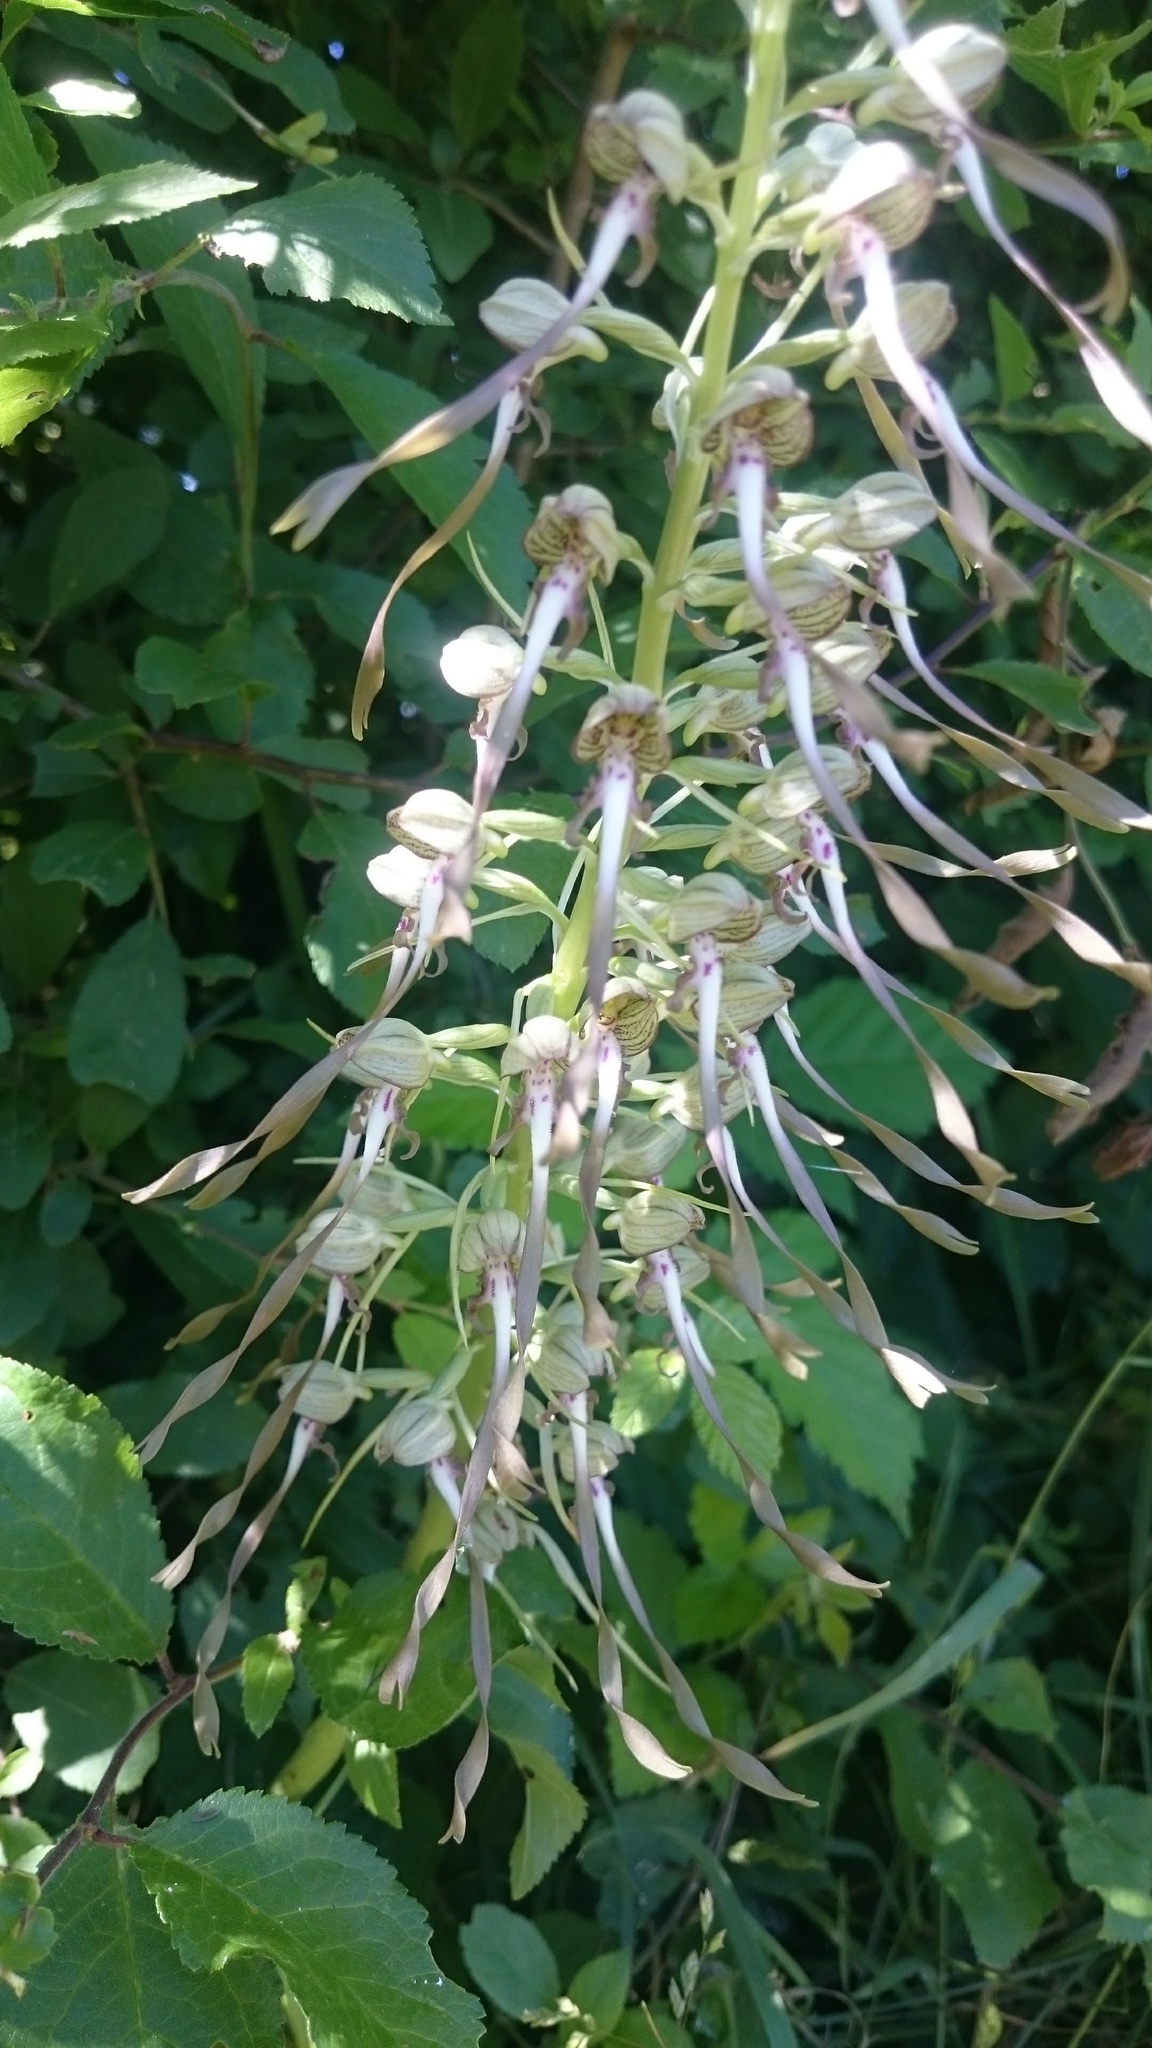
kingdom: Plantae
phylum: Tracheophyta
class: Liliopsida
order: Asparagales
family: Orchidaceae
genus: Himantoglossum
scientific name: Himantoglossum hircinum
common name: Lizard orchid
